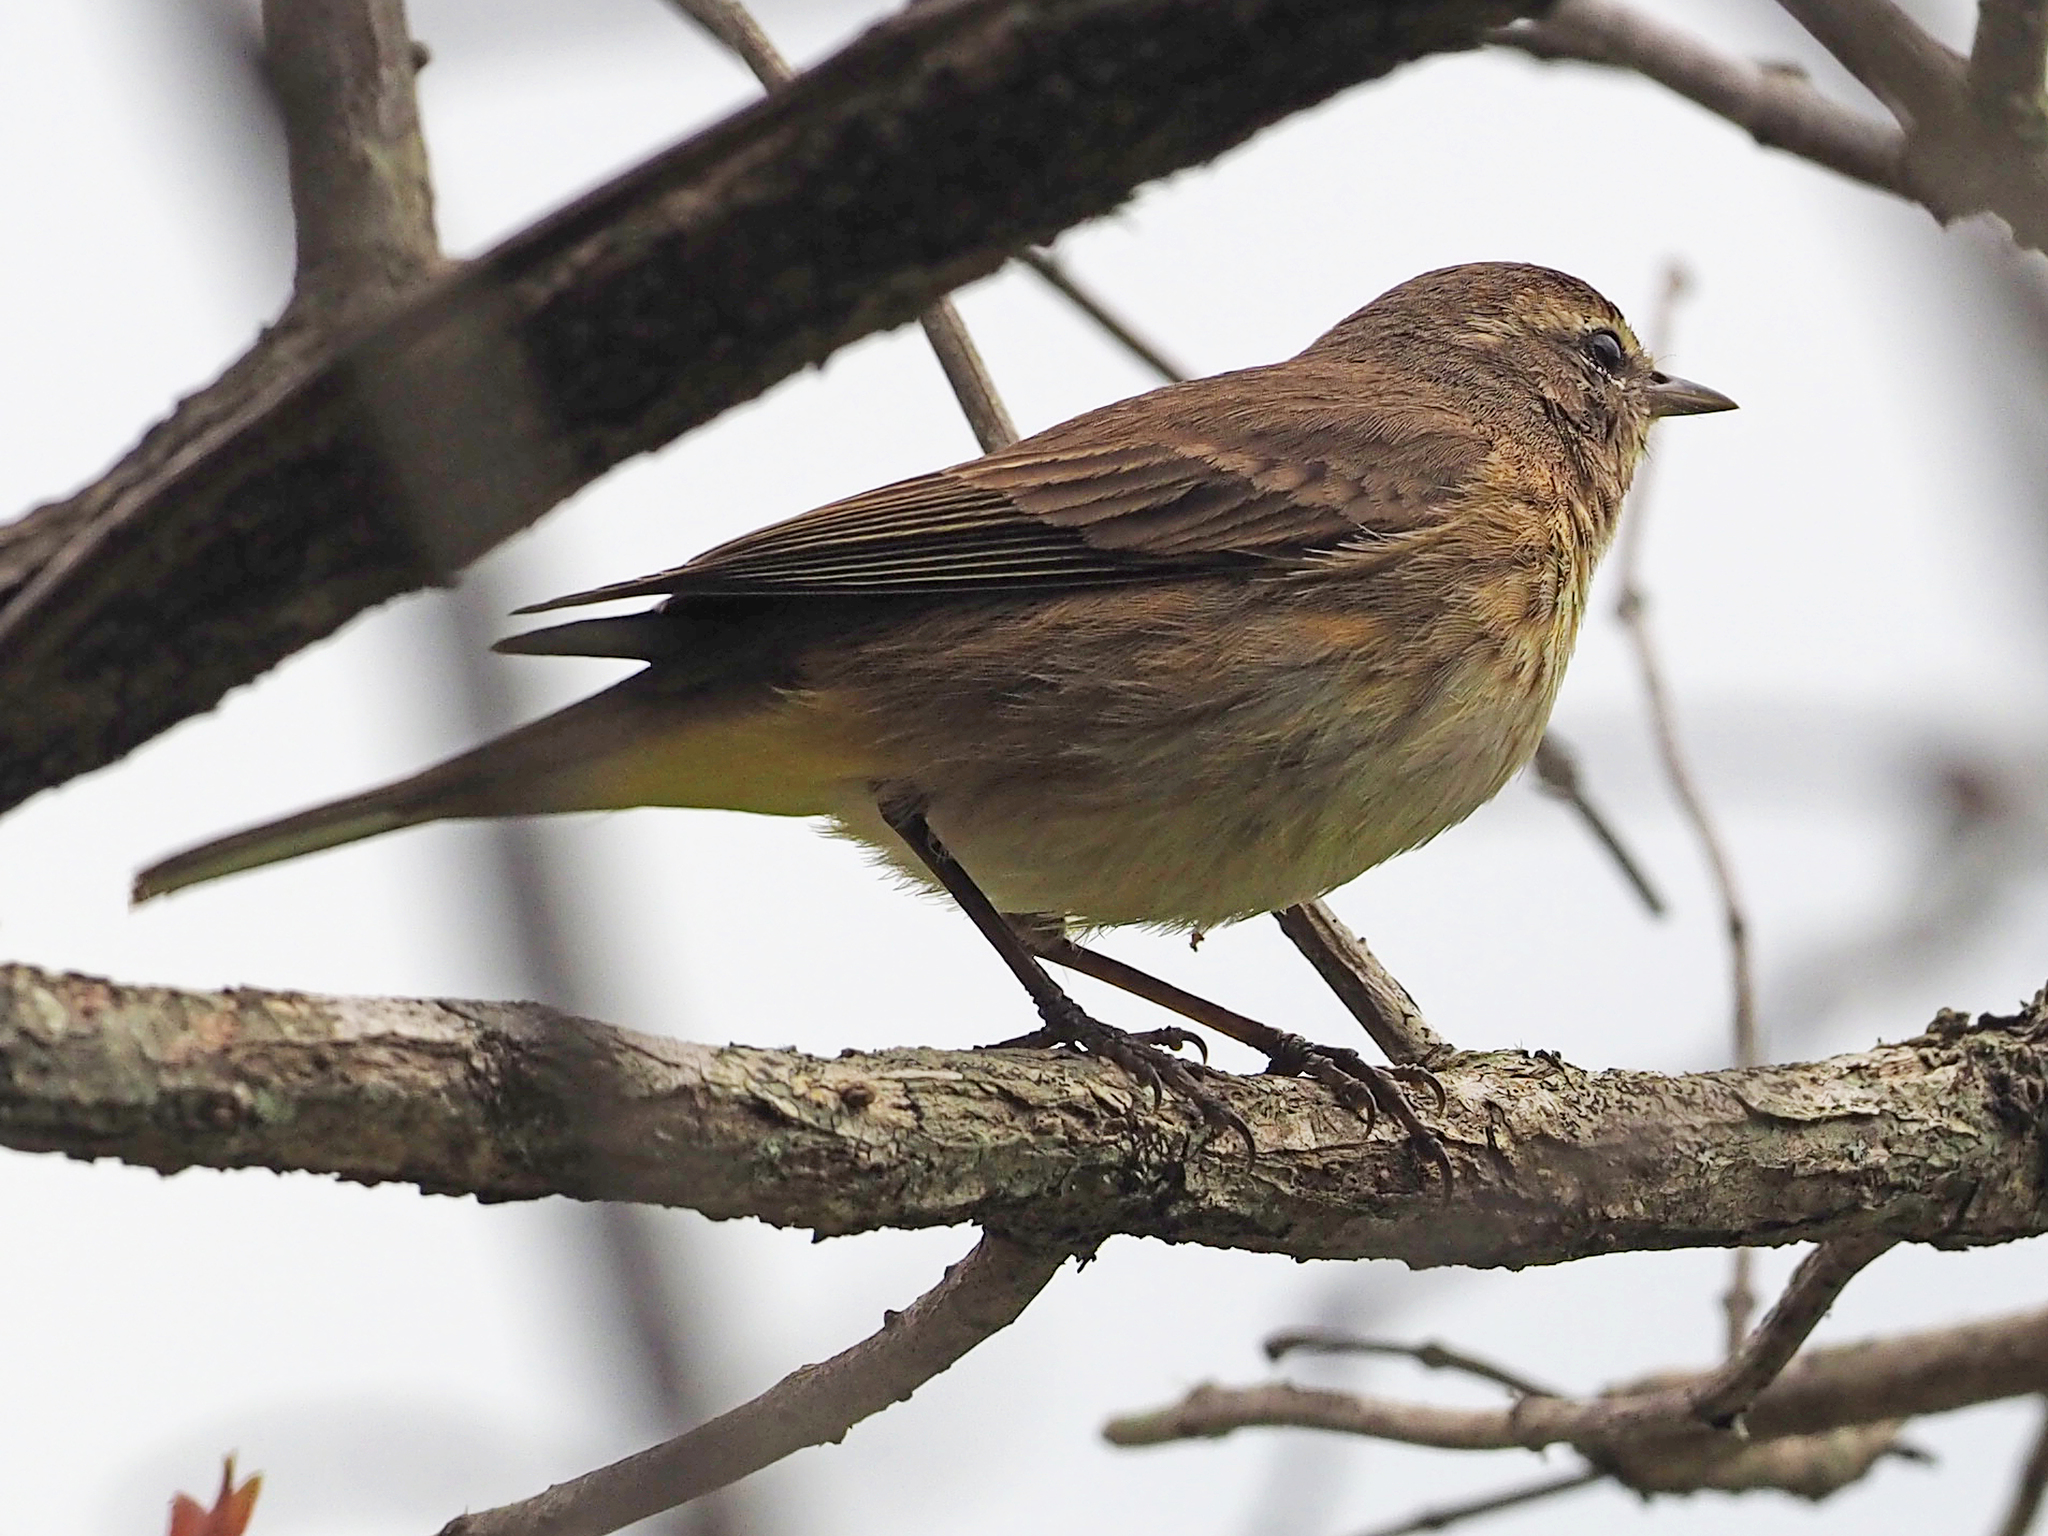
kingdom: Animalia
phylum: Chordata
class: Aves
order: Passeriformes
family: Parulidae
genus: Setophaga
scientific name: Setophaga palmarum
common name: Palm warbler
